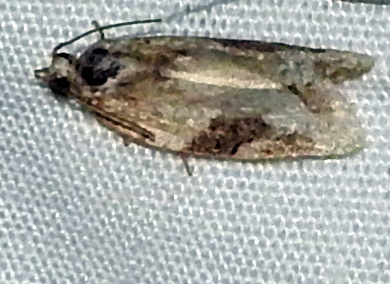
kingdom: Animalia
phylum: Arthropoda
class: Insecta
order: Lepidoptera
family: Tortricidae
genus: Argyrotaenia
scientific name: Argyrotaenia mariana
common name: Gray-banded leafroller moth
